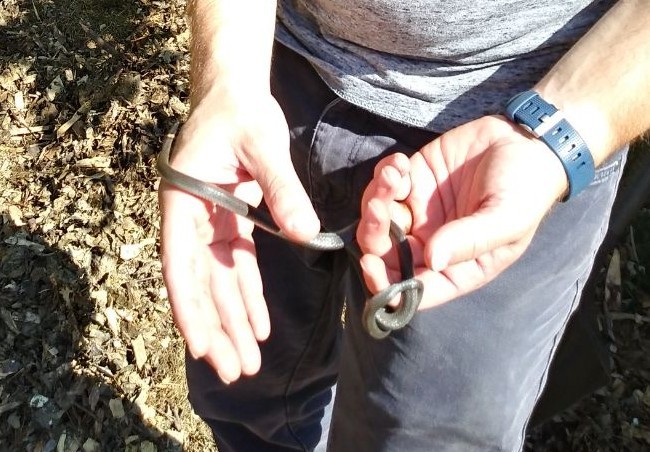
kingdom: Animalia
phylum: Chordata
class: Squamata
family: Colubridae
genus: Diadophis
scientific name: Diadophis punctatus
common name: Ringneck snake
